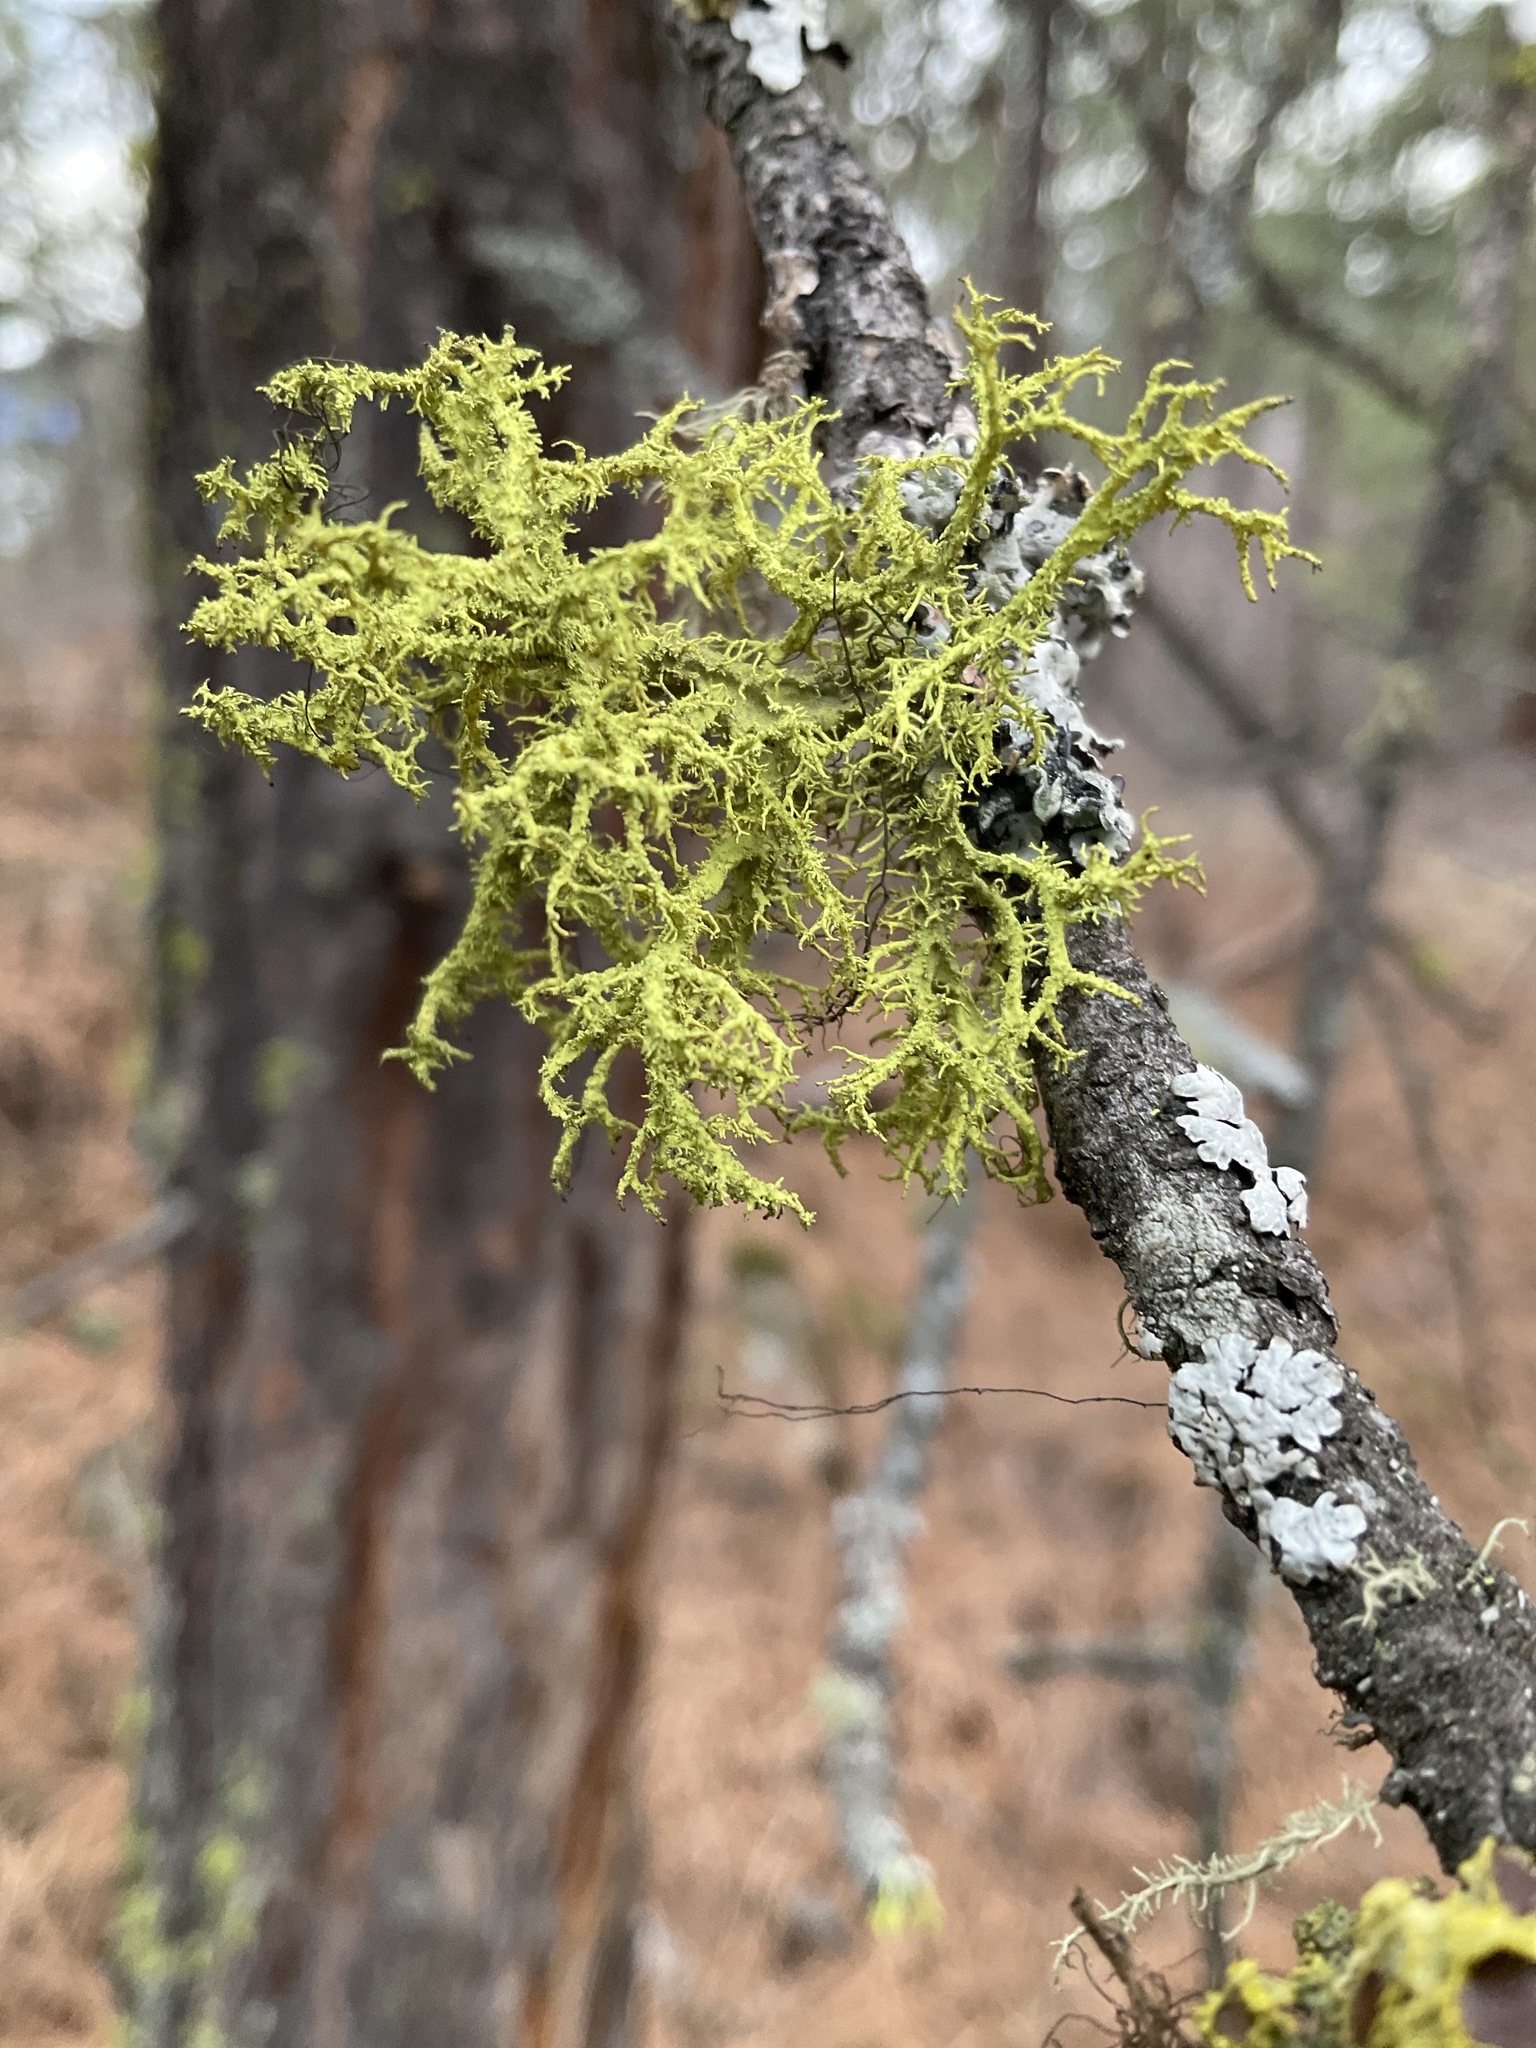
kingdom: Fungi
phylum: Ascomycota
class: Lecanoromycetes
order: Lecanorales
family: Parmeliaceae
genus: Letharia
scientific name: Letharia vulpina
